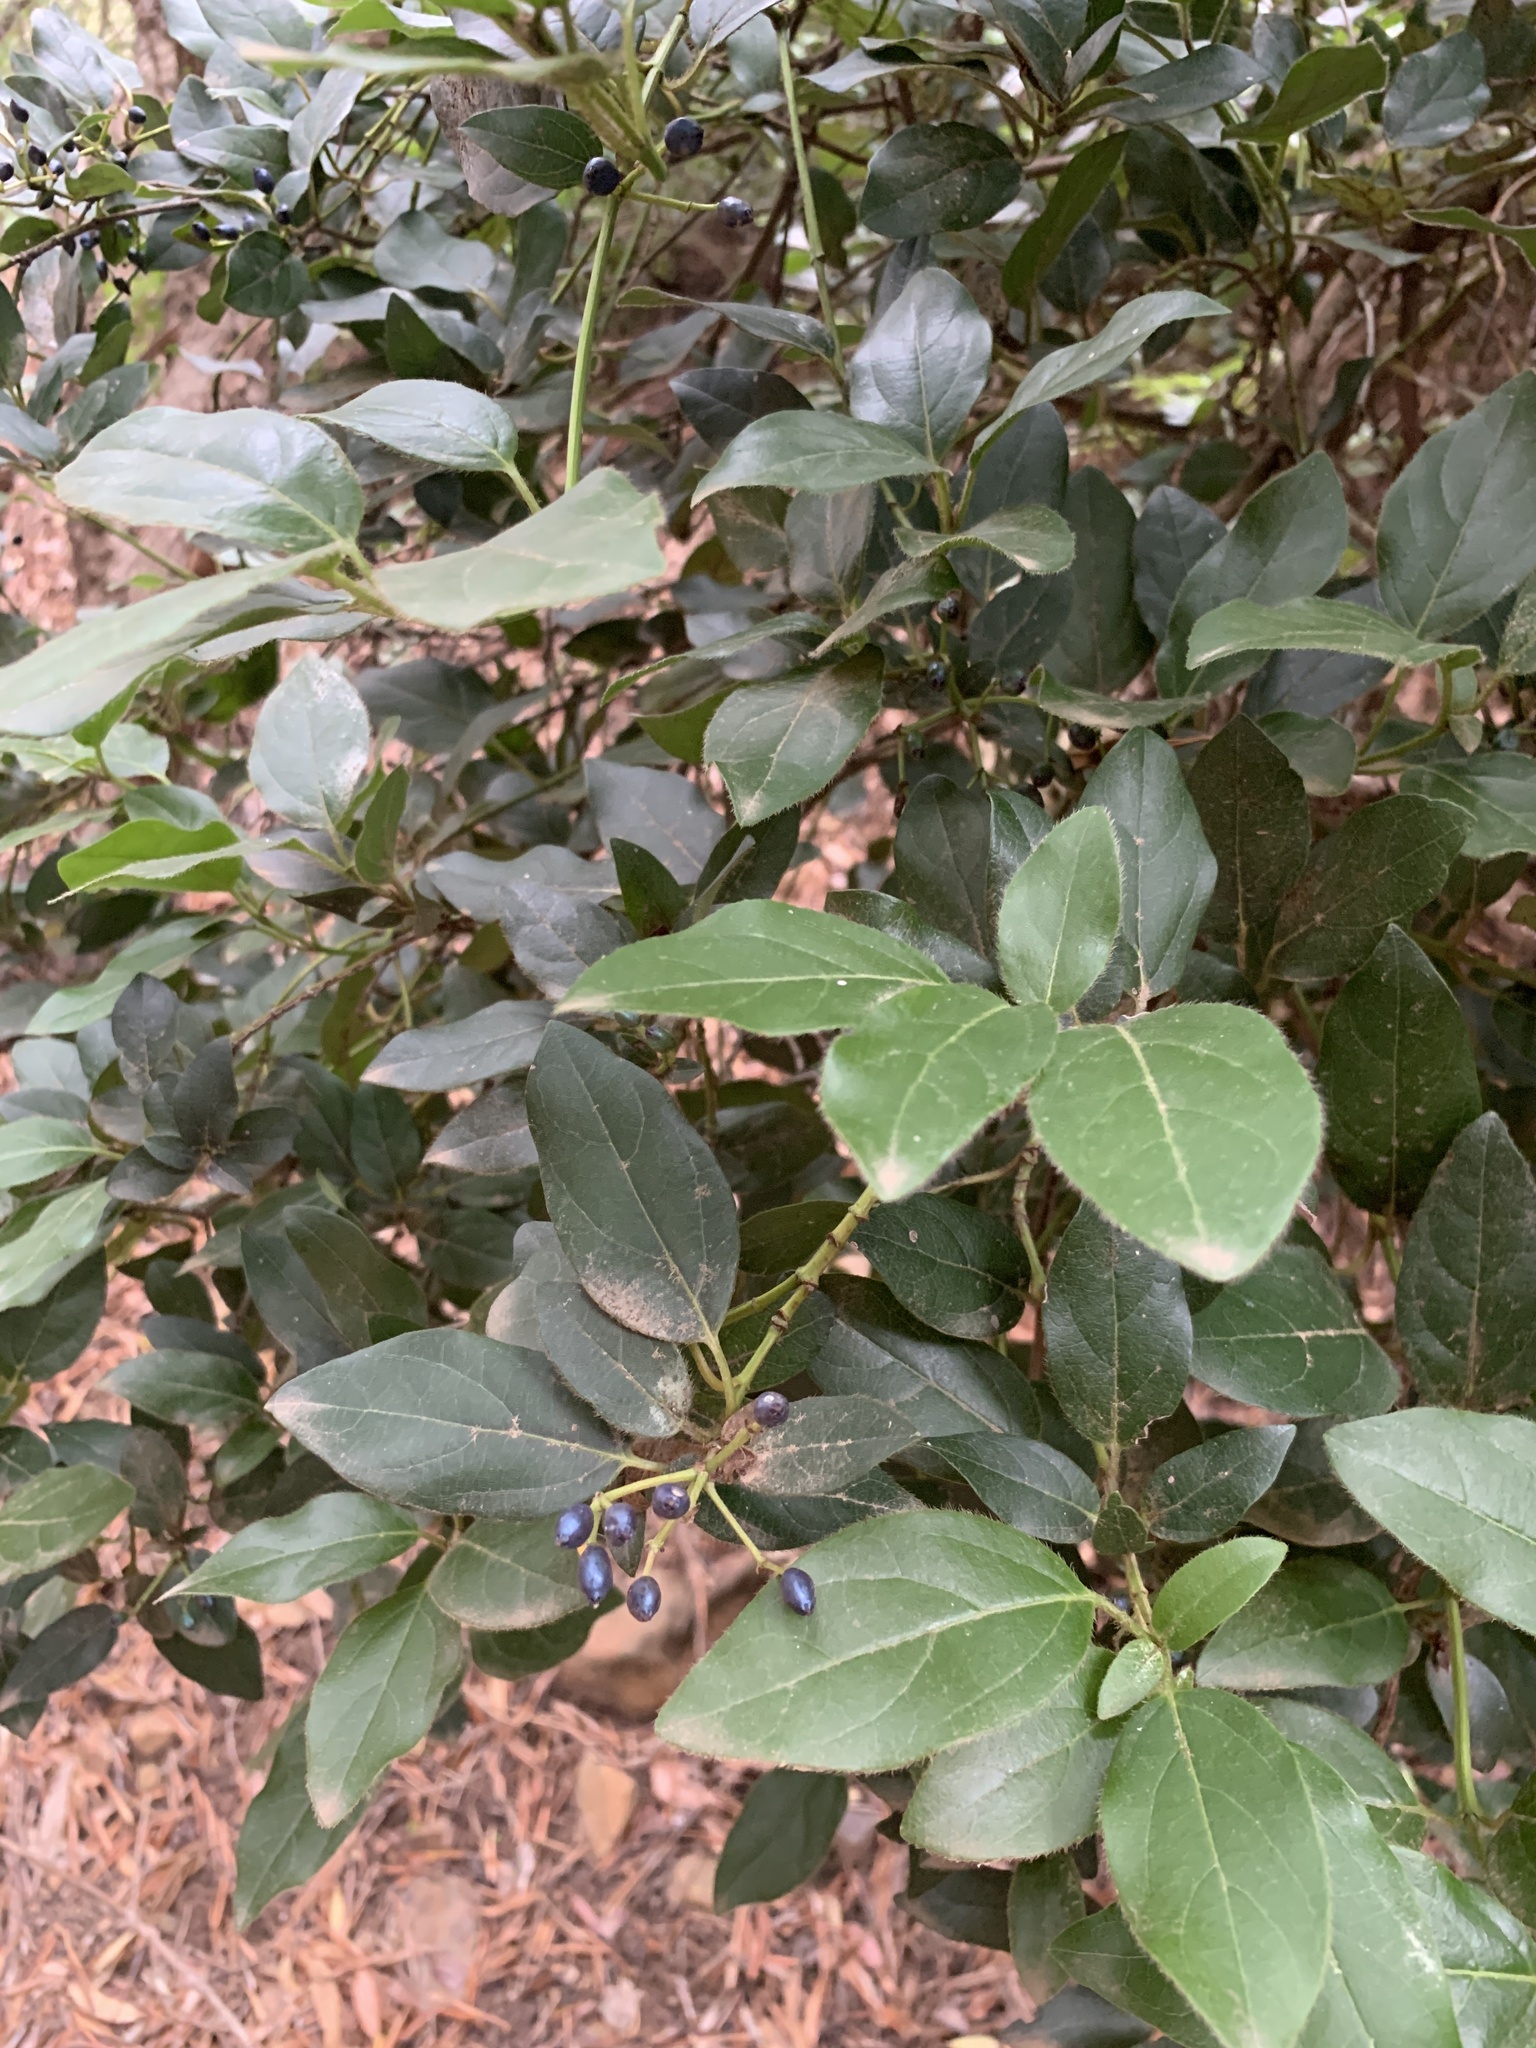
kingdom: Plantae
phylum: Tracheophyta
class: Magnoliopsida
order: Dipsacales
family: Viburnaceae
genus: Viburnum
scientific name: Viburnum tinus
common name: Laurustinus
